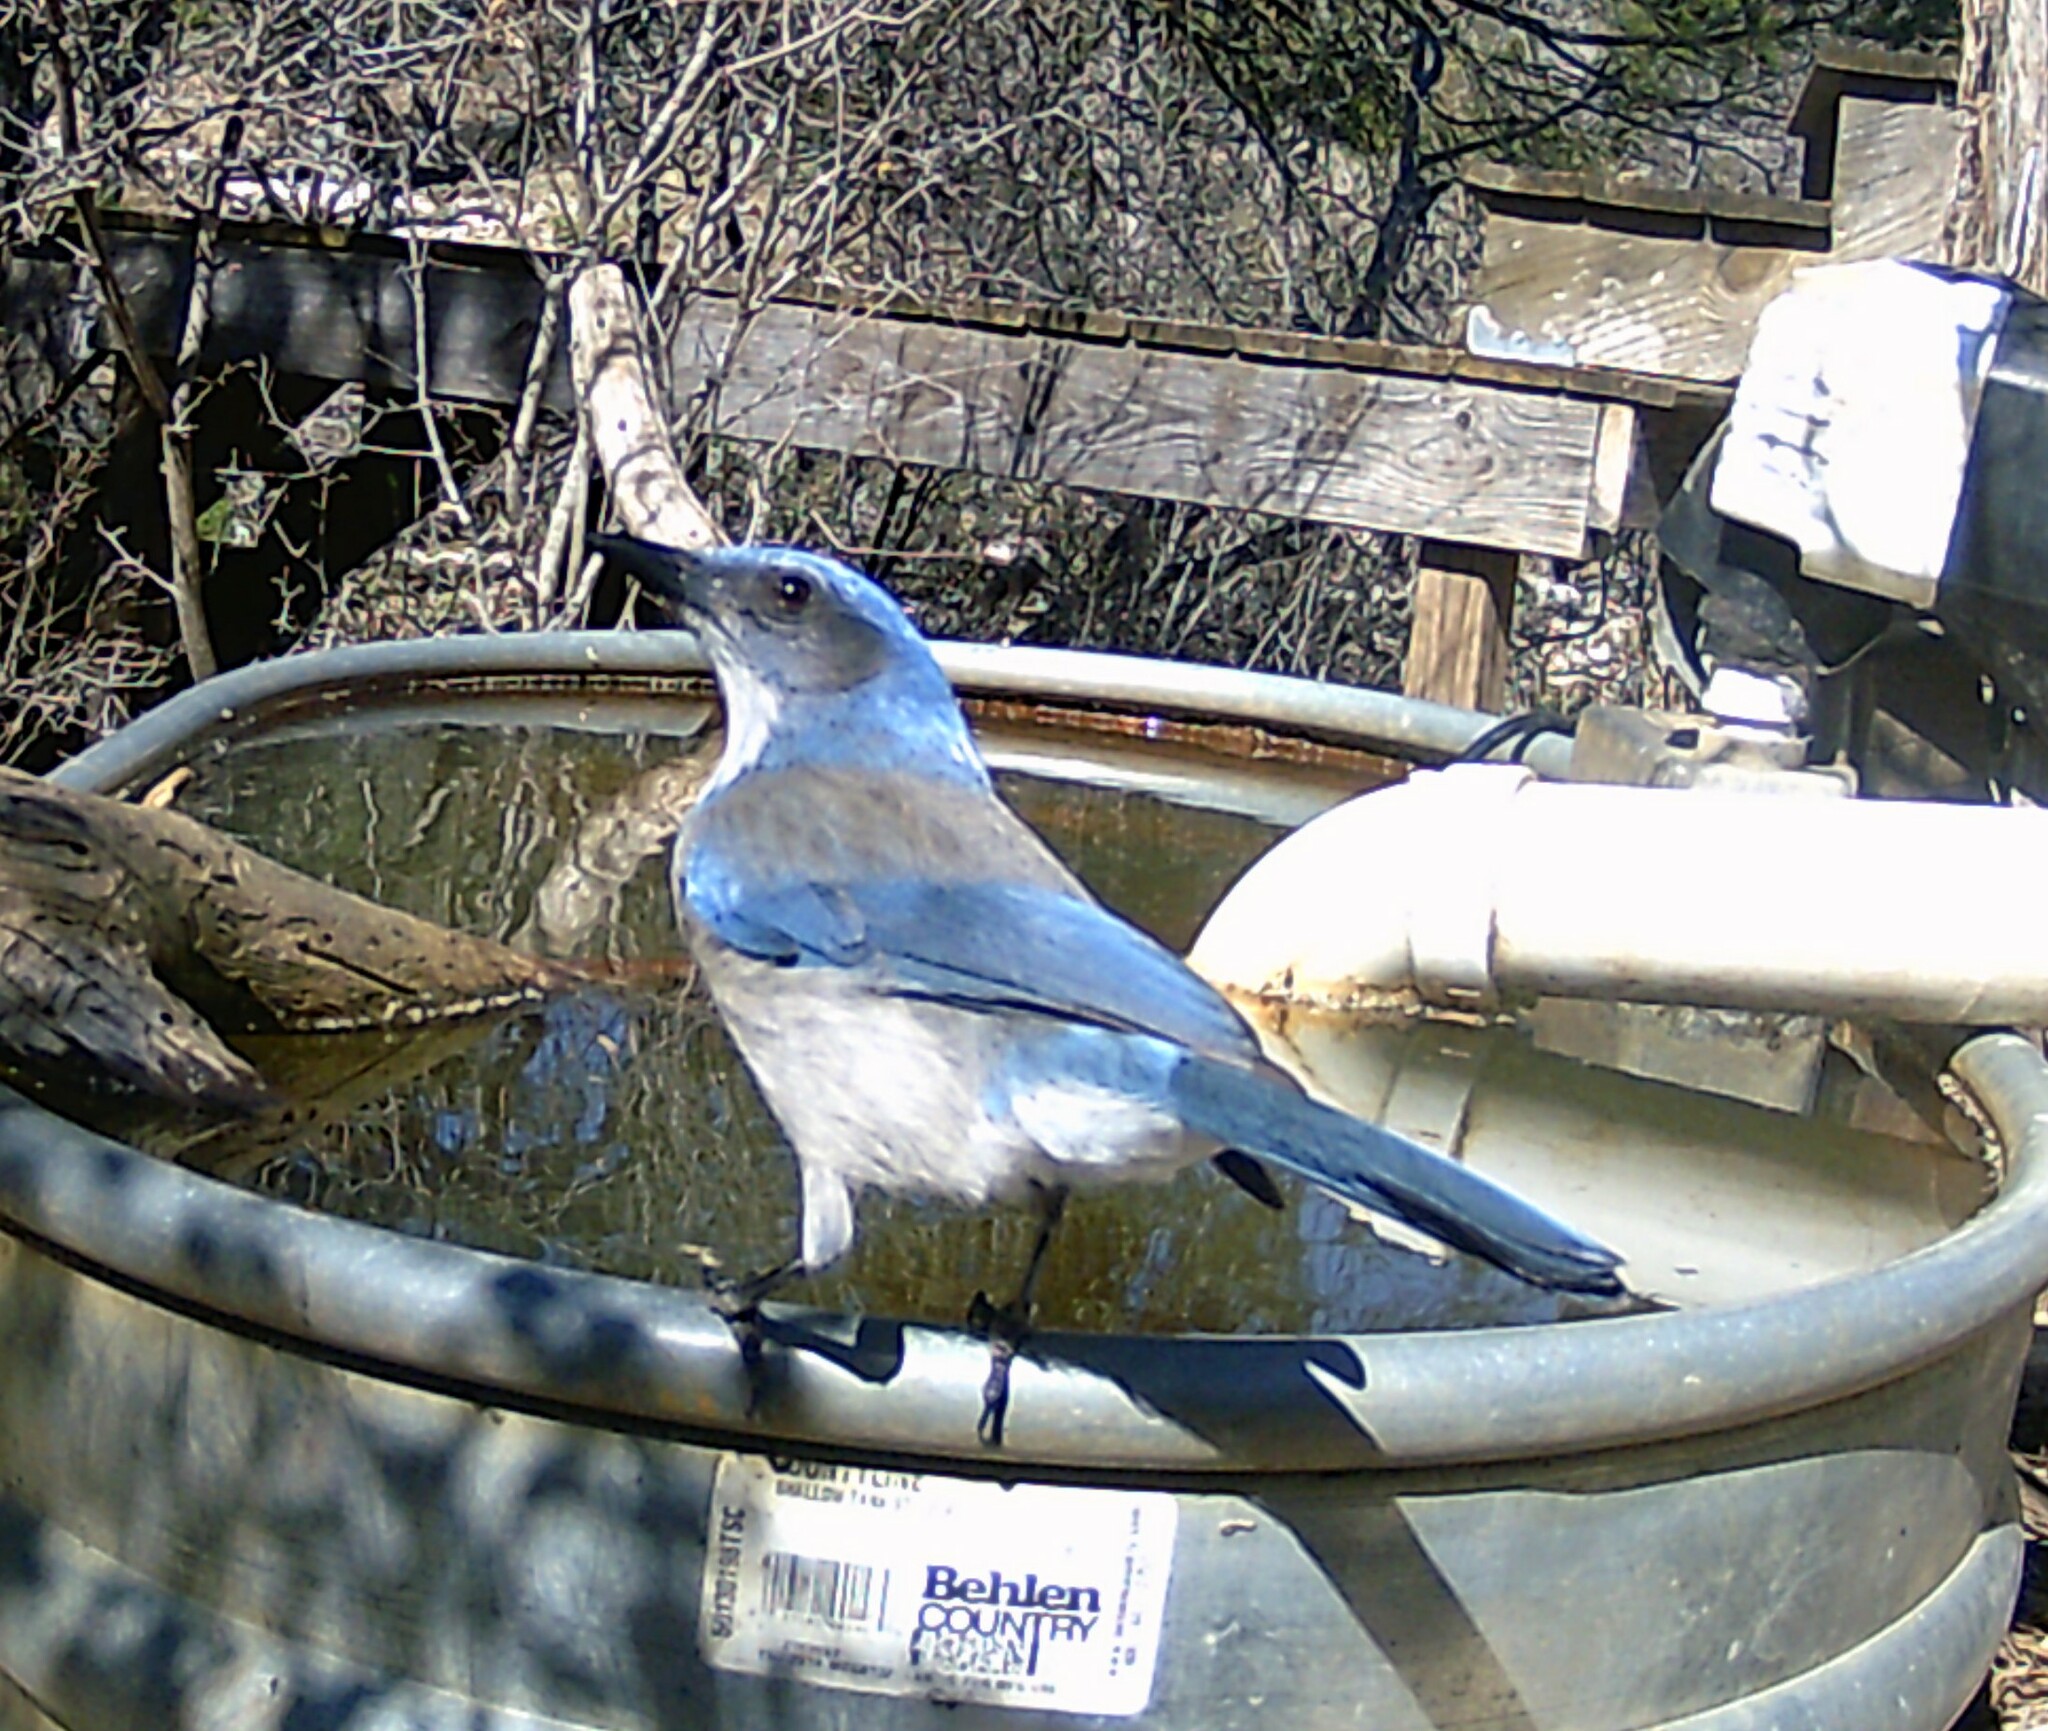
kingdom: Animalia
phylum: Chordata
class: Aves
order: Passeriformes
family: Corvidae
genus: Aphelocoma
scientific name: Aphelocoma woodhouseii
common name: Woodhouse's scrub-jay
